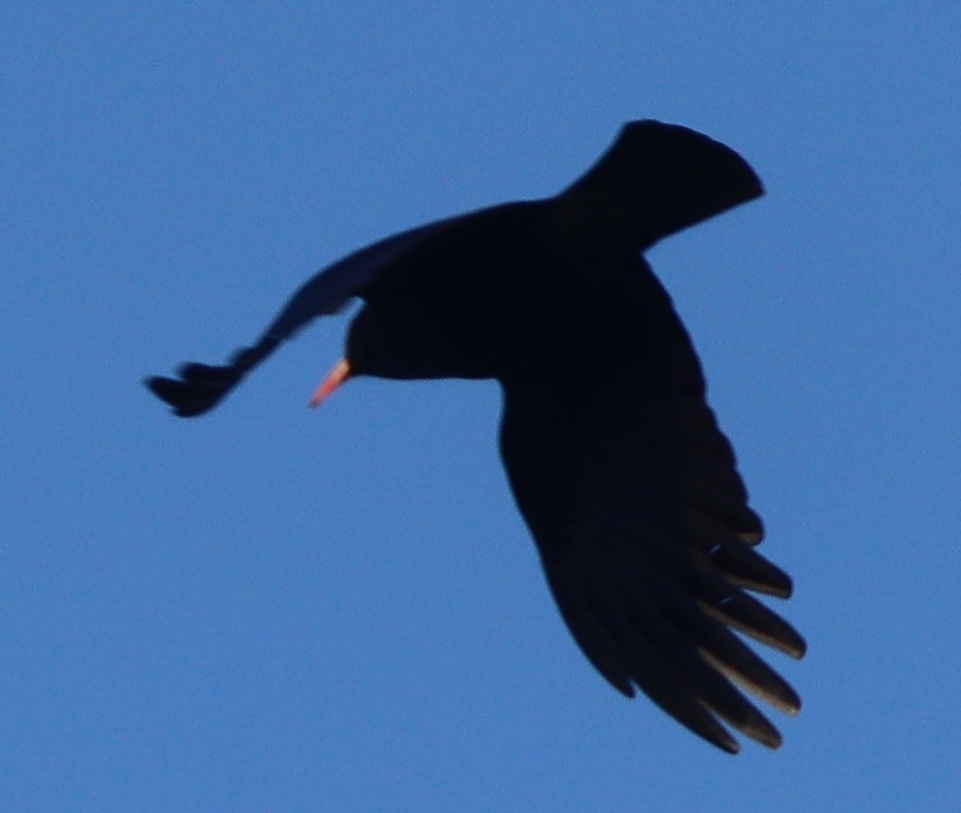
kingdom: Animalia
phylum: Chordata
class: Aves
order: Passeriformes
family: Corvidae
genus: Pyrrhocorax
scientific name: Pyrrhocorax pyrrhocorax
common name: Red-billed chough
